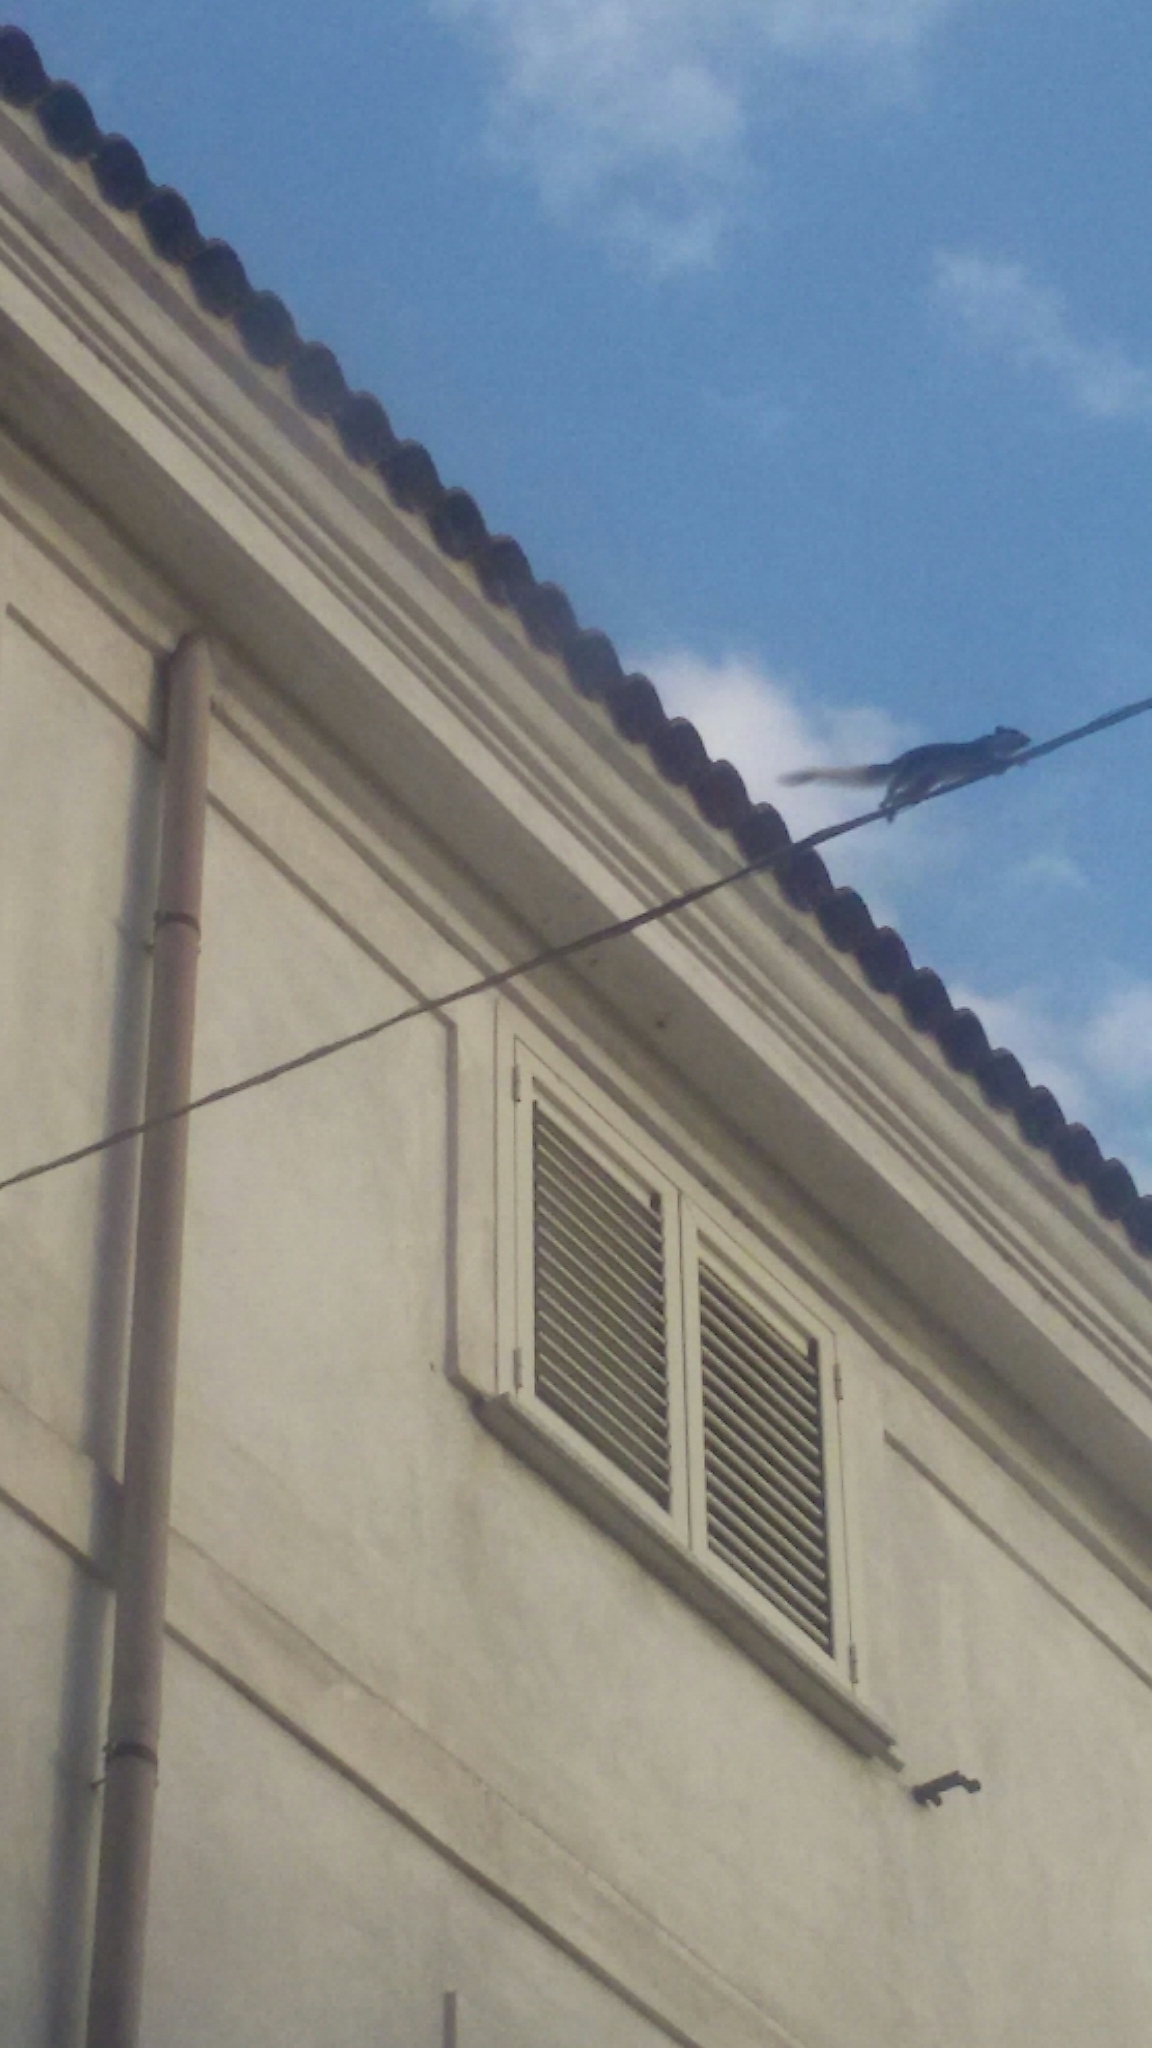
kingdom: Animalia
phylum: Chordata
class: Mammalia
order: Rodentia
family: Sciuridae
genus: Callosciurus
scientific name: Callosciurus finlaysonii
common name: Finlayson's squirrel
